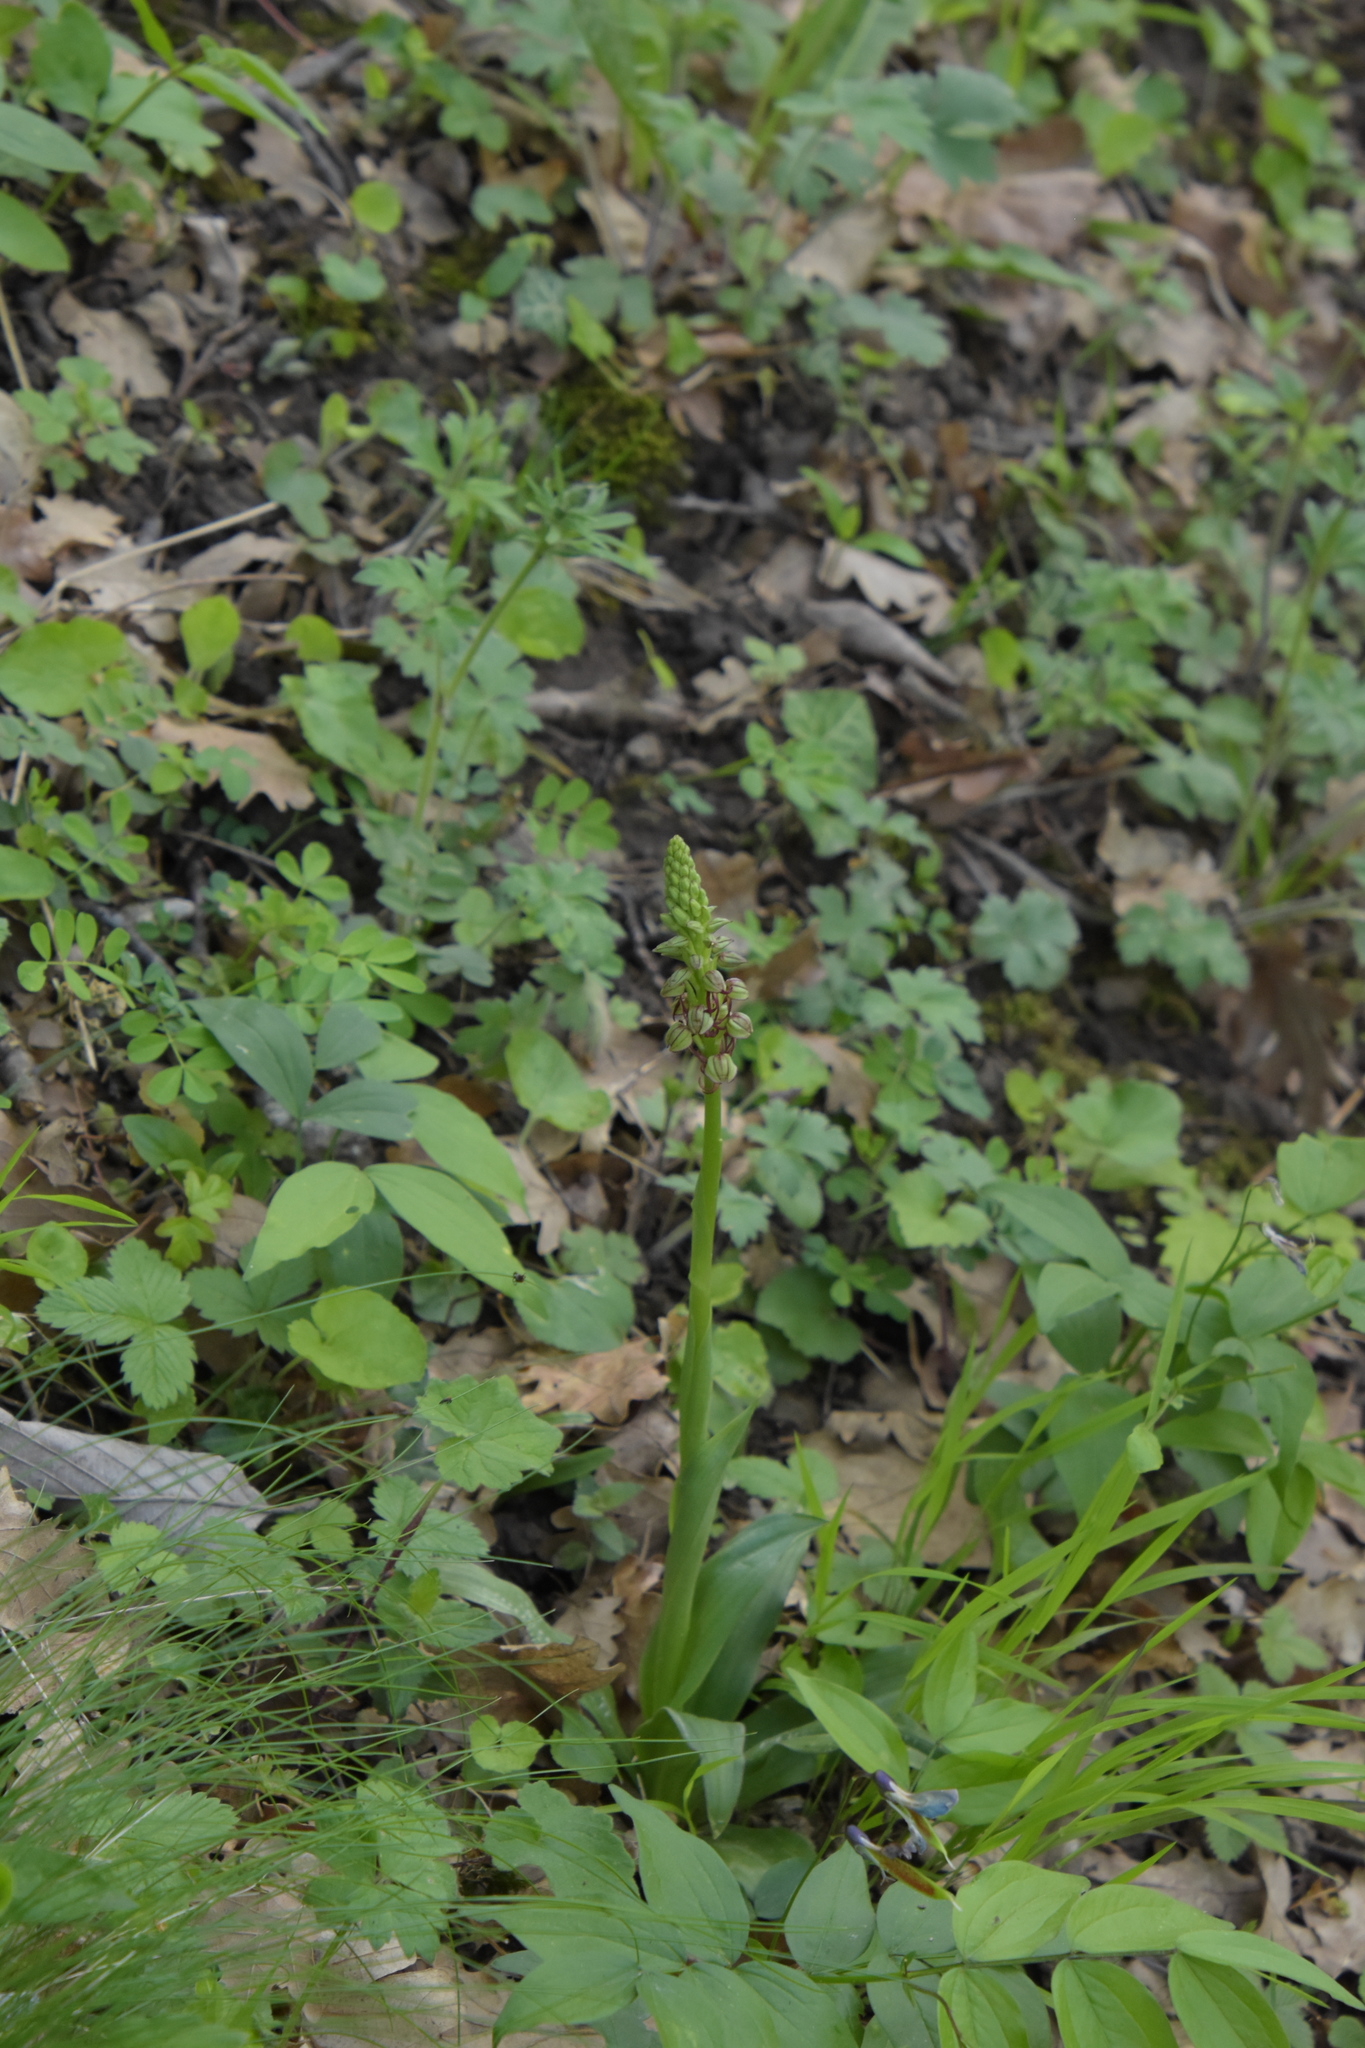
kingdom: Plantae
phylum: Tracheophyta
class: Liliopsida
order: Asparagales
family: Orchidaceae
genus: Orchis
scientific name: Orchis anthropophora
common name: Man orchid
